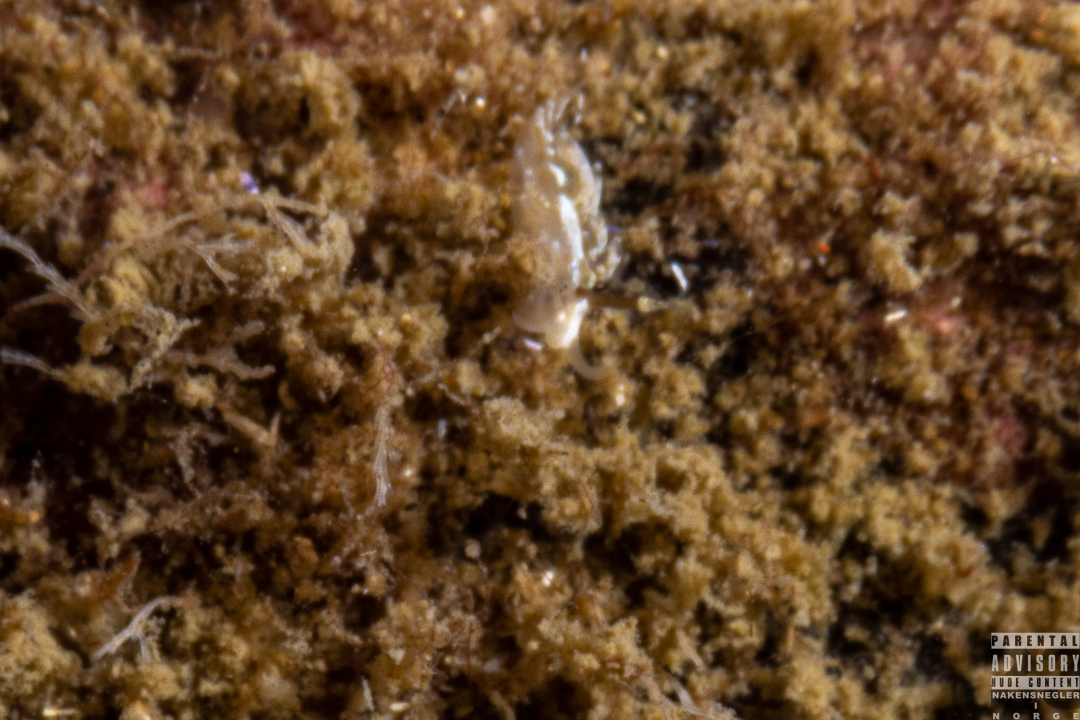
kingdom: Animalia
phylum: Mollusca
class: Gastropoda
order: Nudibranchia
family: Facelinidae
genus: Favorinus
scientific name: Favorinus branchialis
